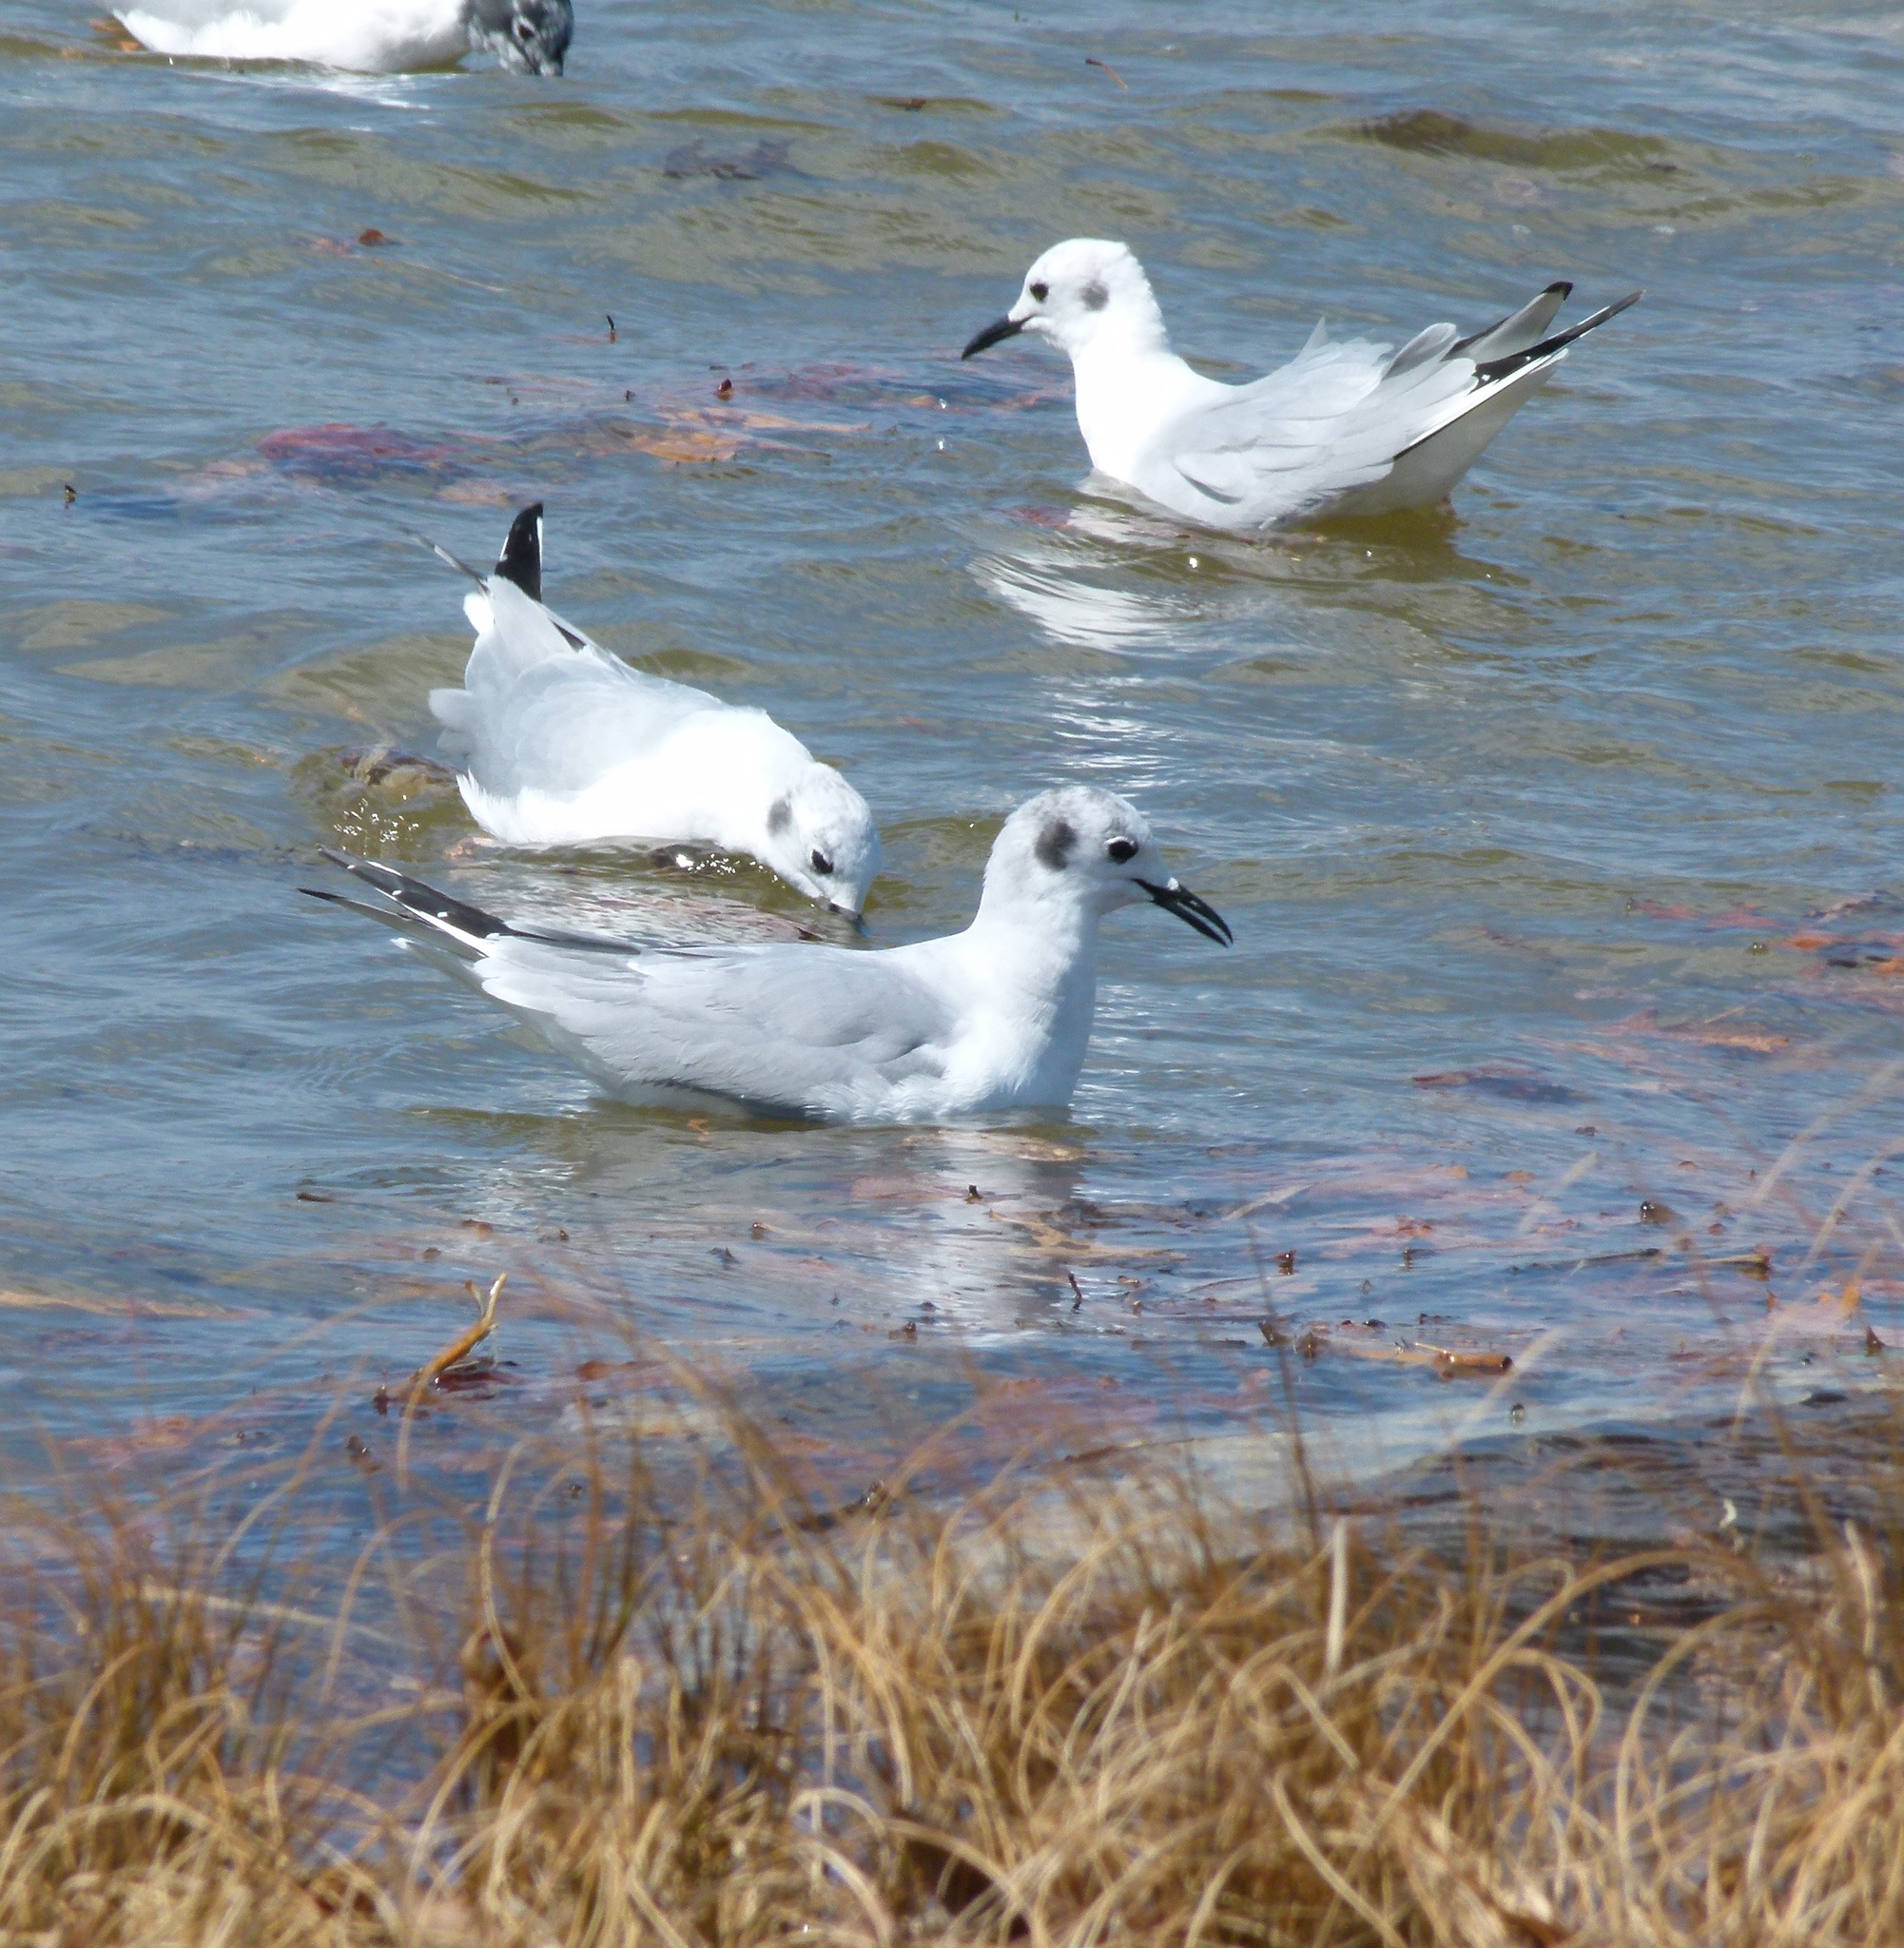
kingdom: Animalia
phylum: Chordata
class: Aves
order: Charadriiformes
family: Laridae
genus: Chroicocephalus
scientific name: Chroicocephalus philadelphia
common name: Bonaparte's gull
